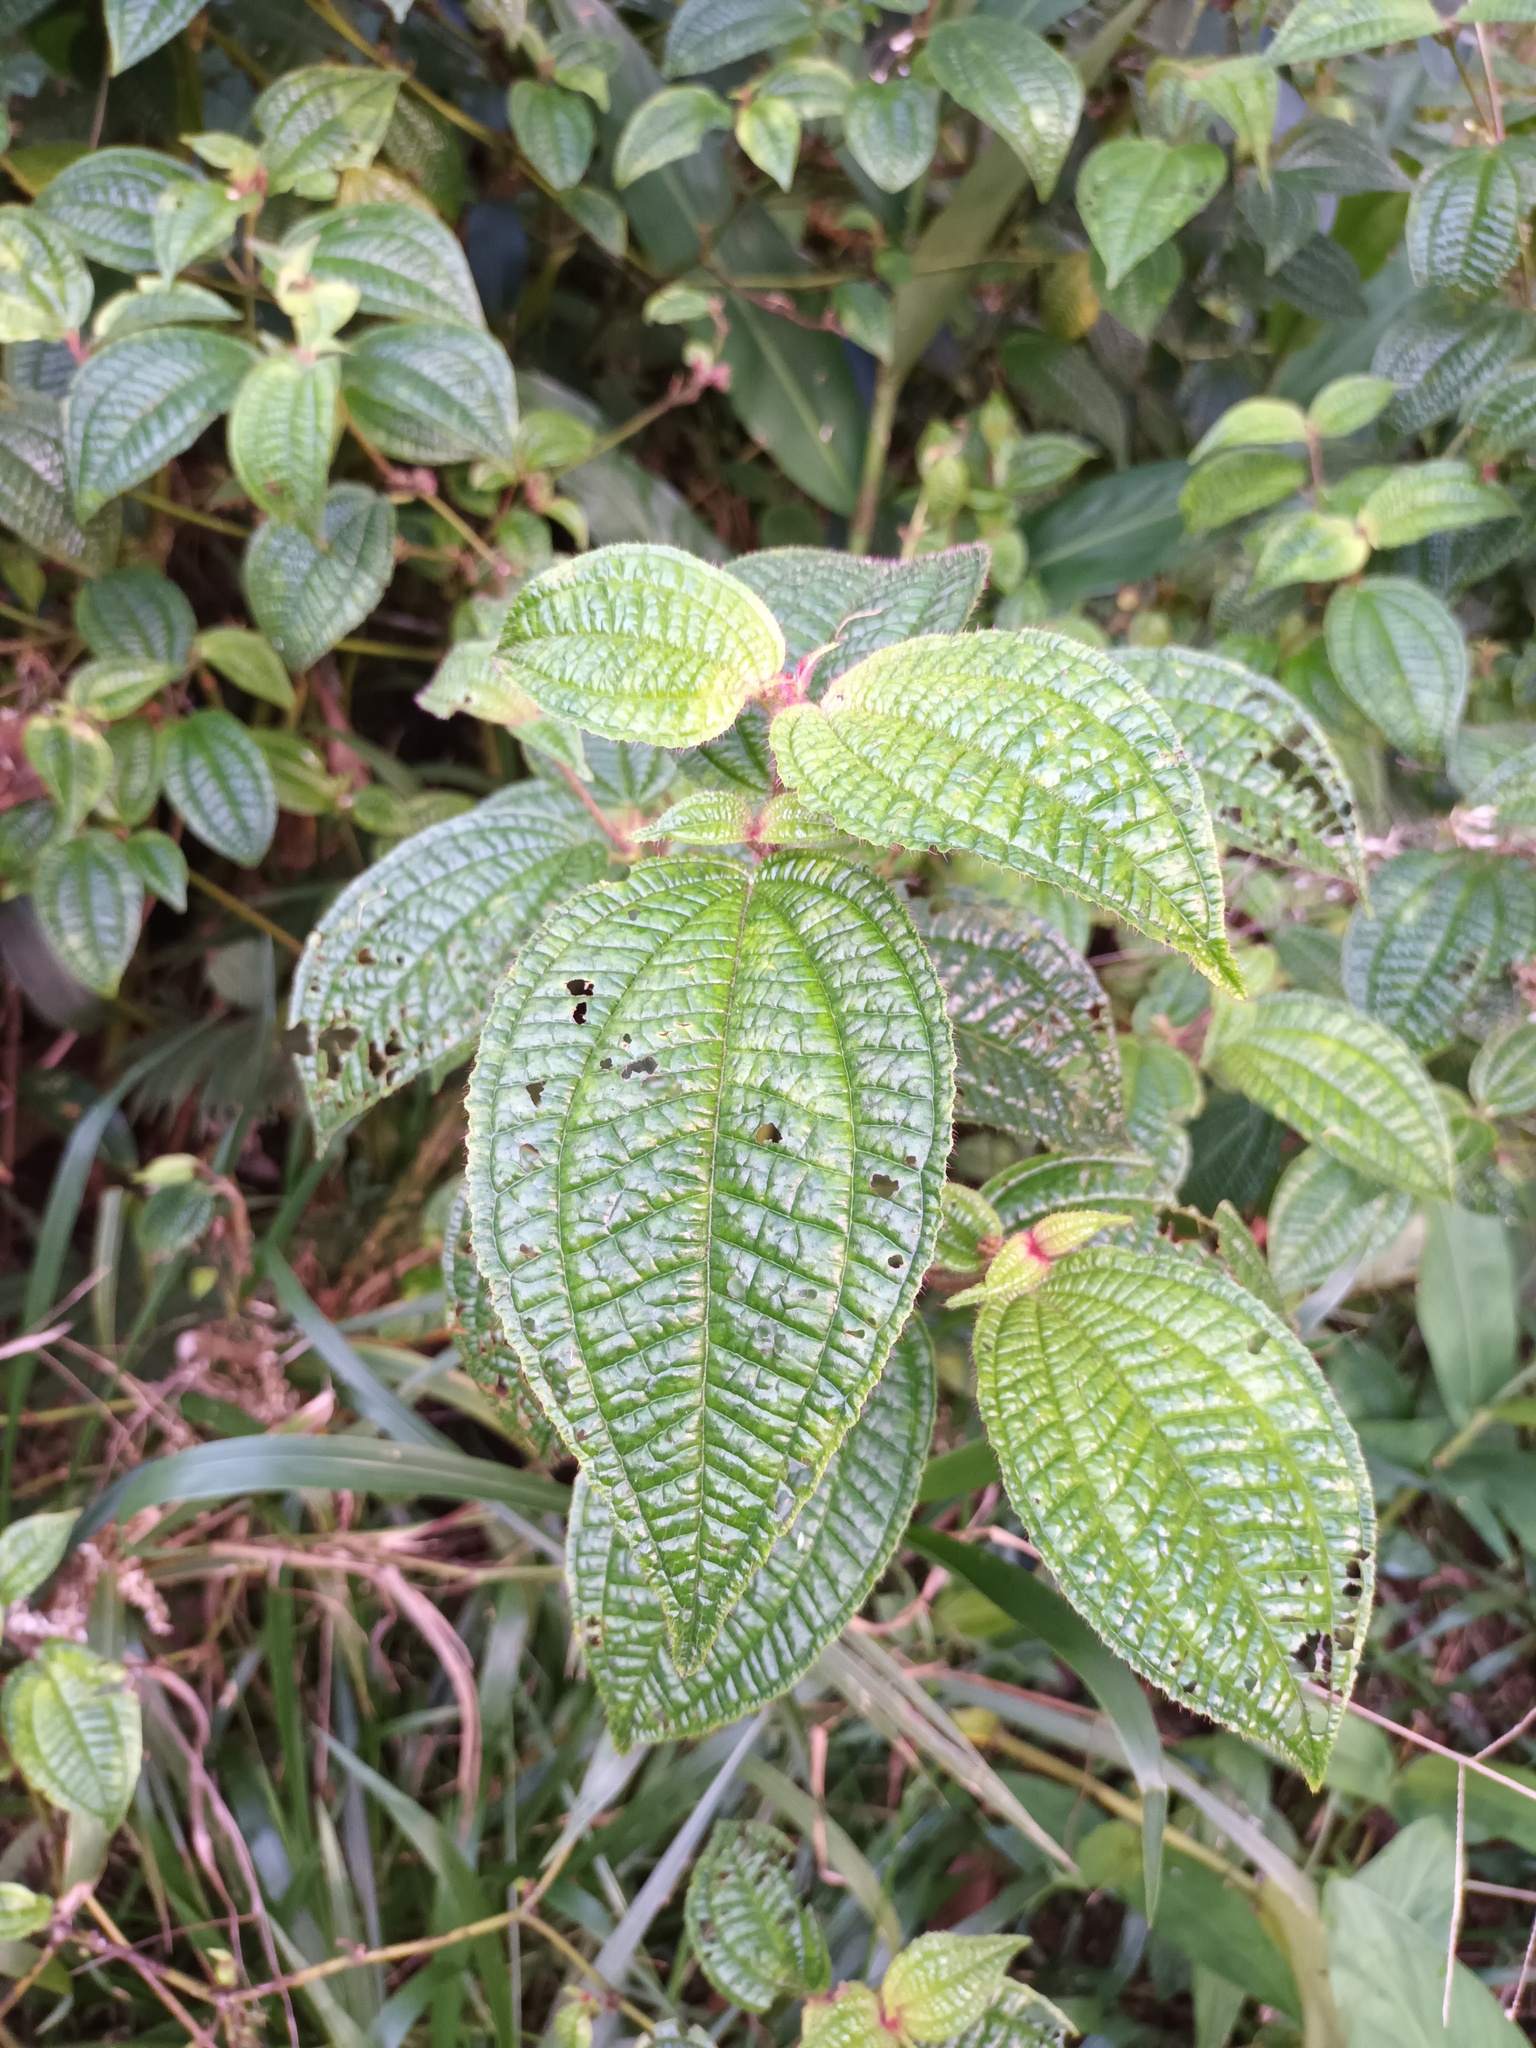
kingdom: Plantae
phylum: Tracheophyta
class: Magnoliopsida
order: Myrtales
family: Melastomataceae
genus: Miconia
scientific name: Miconia crenata
